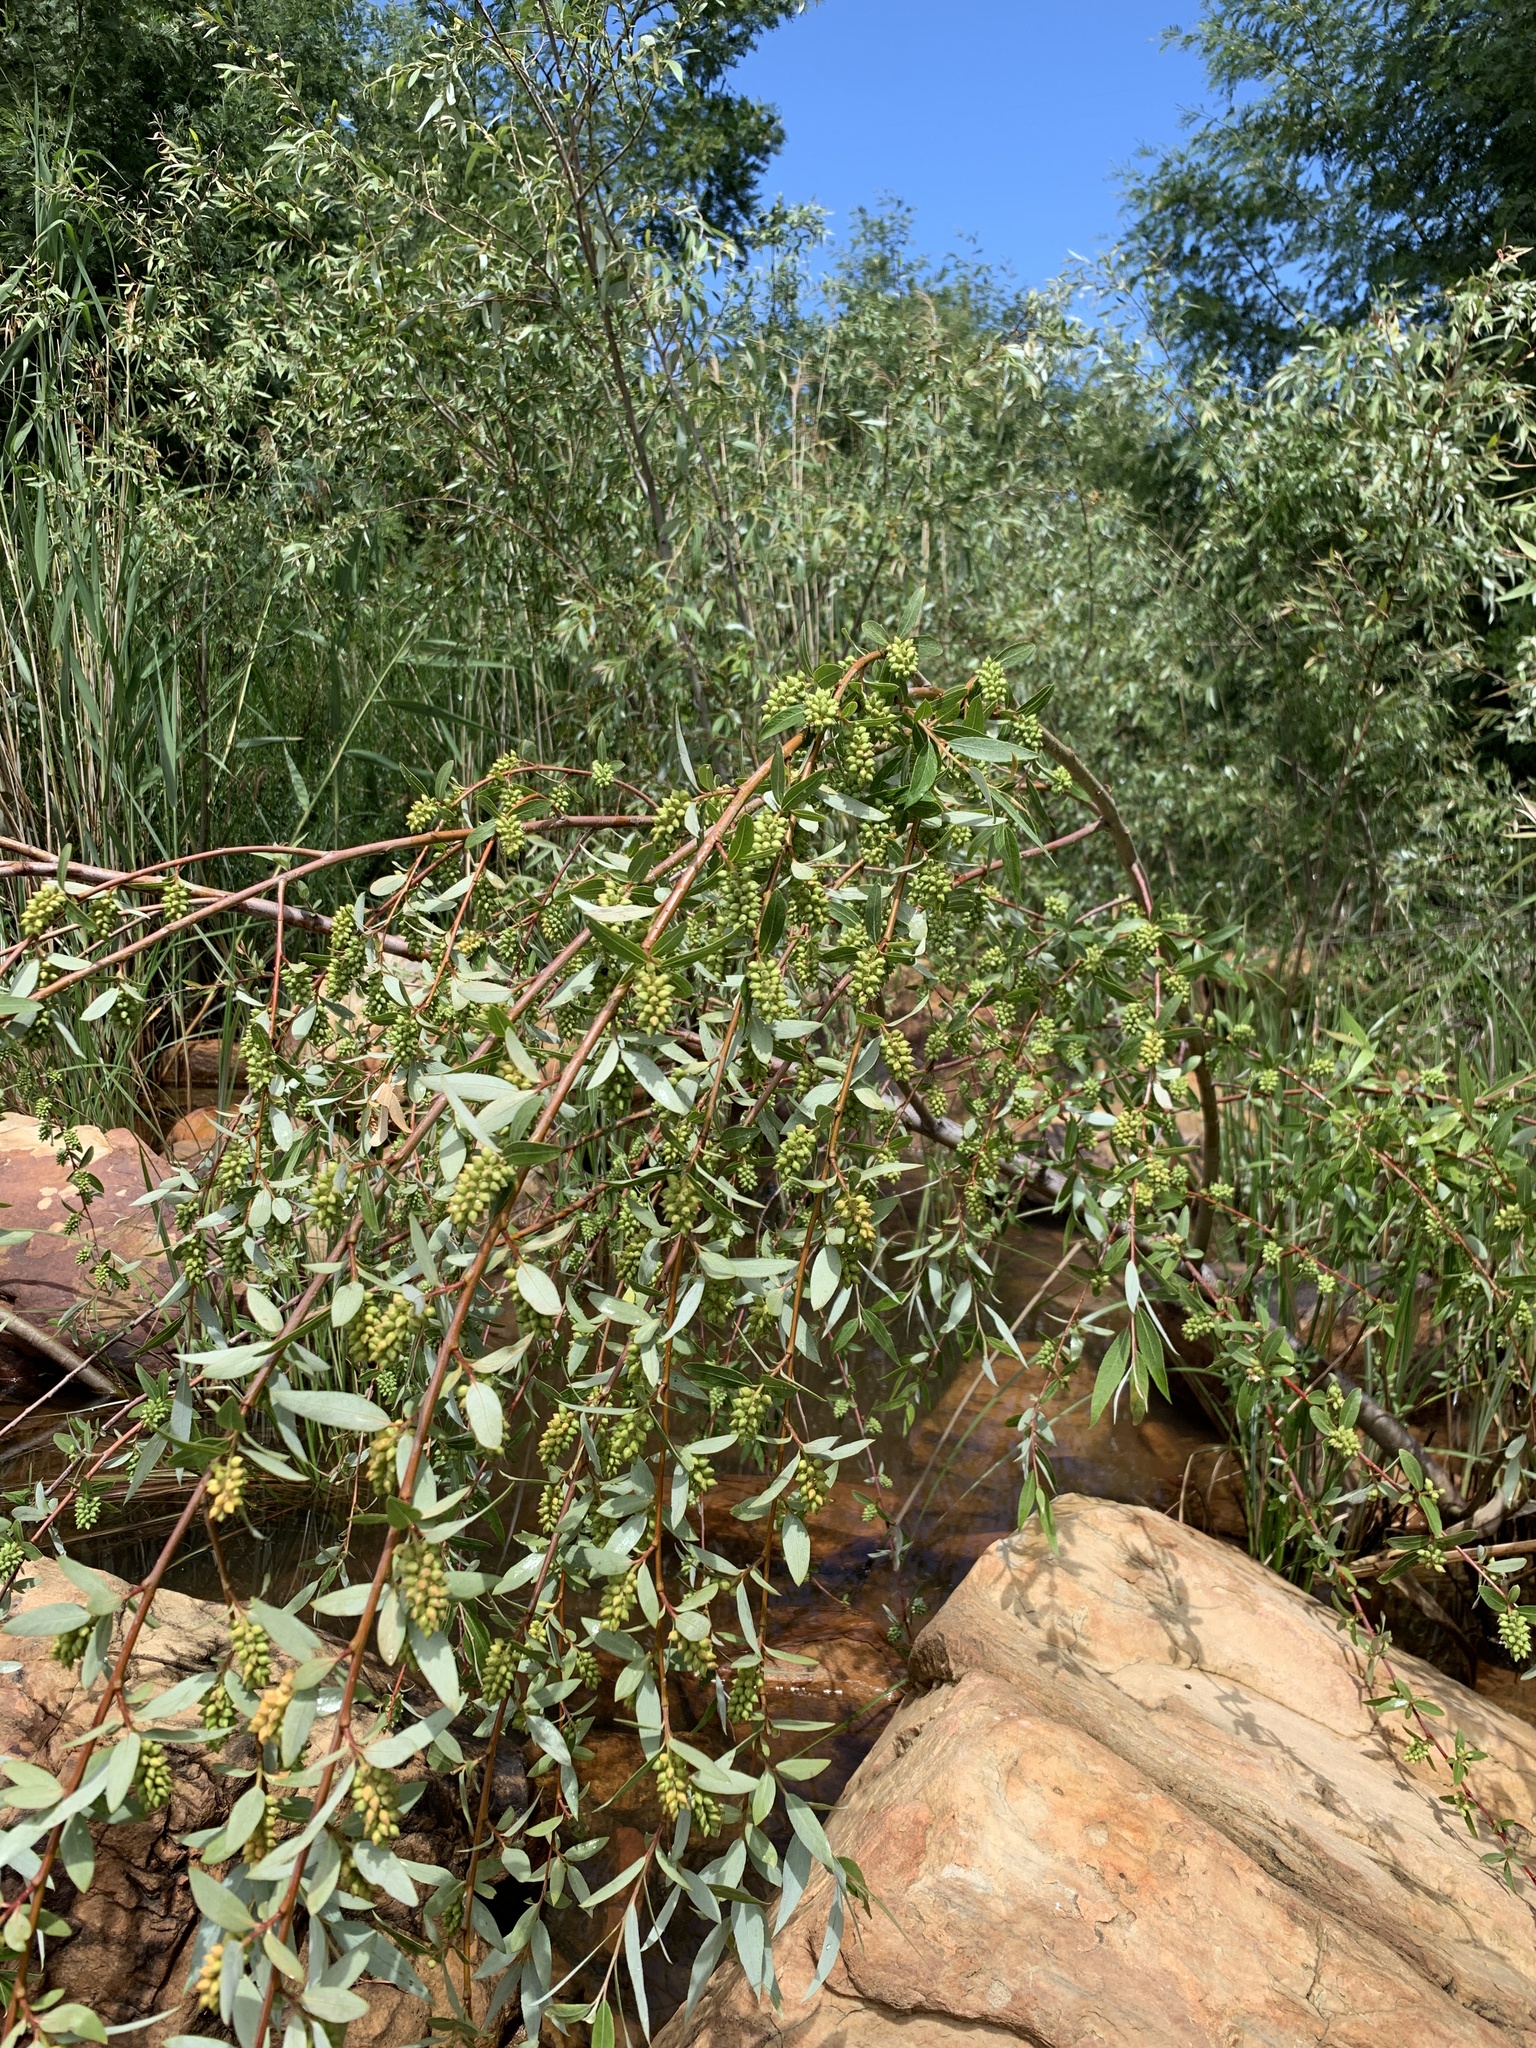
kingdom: Plantae
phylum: Tracheophyta
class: Magnoliopsida
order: Malpighiales
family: Salicaceae
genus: Salix
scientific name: Salix mucronata
